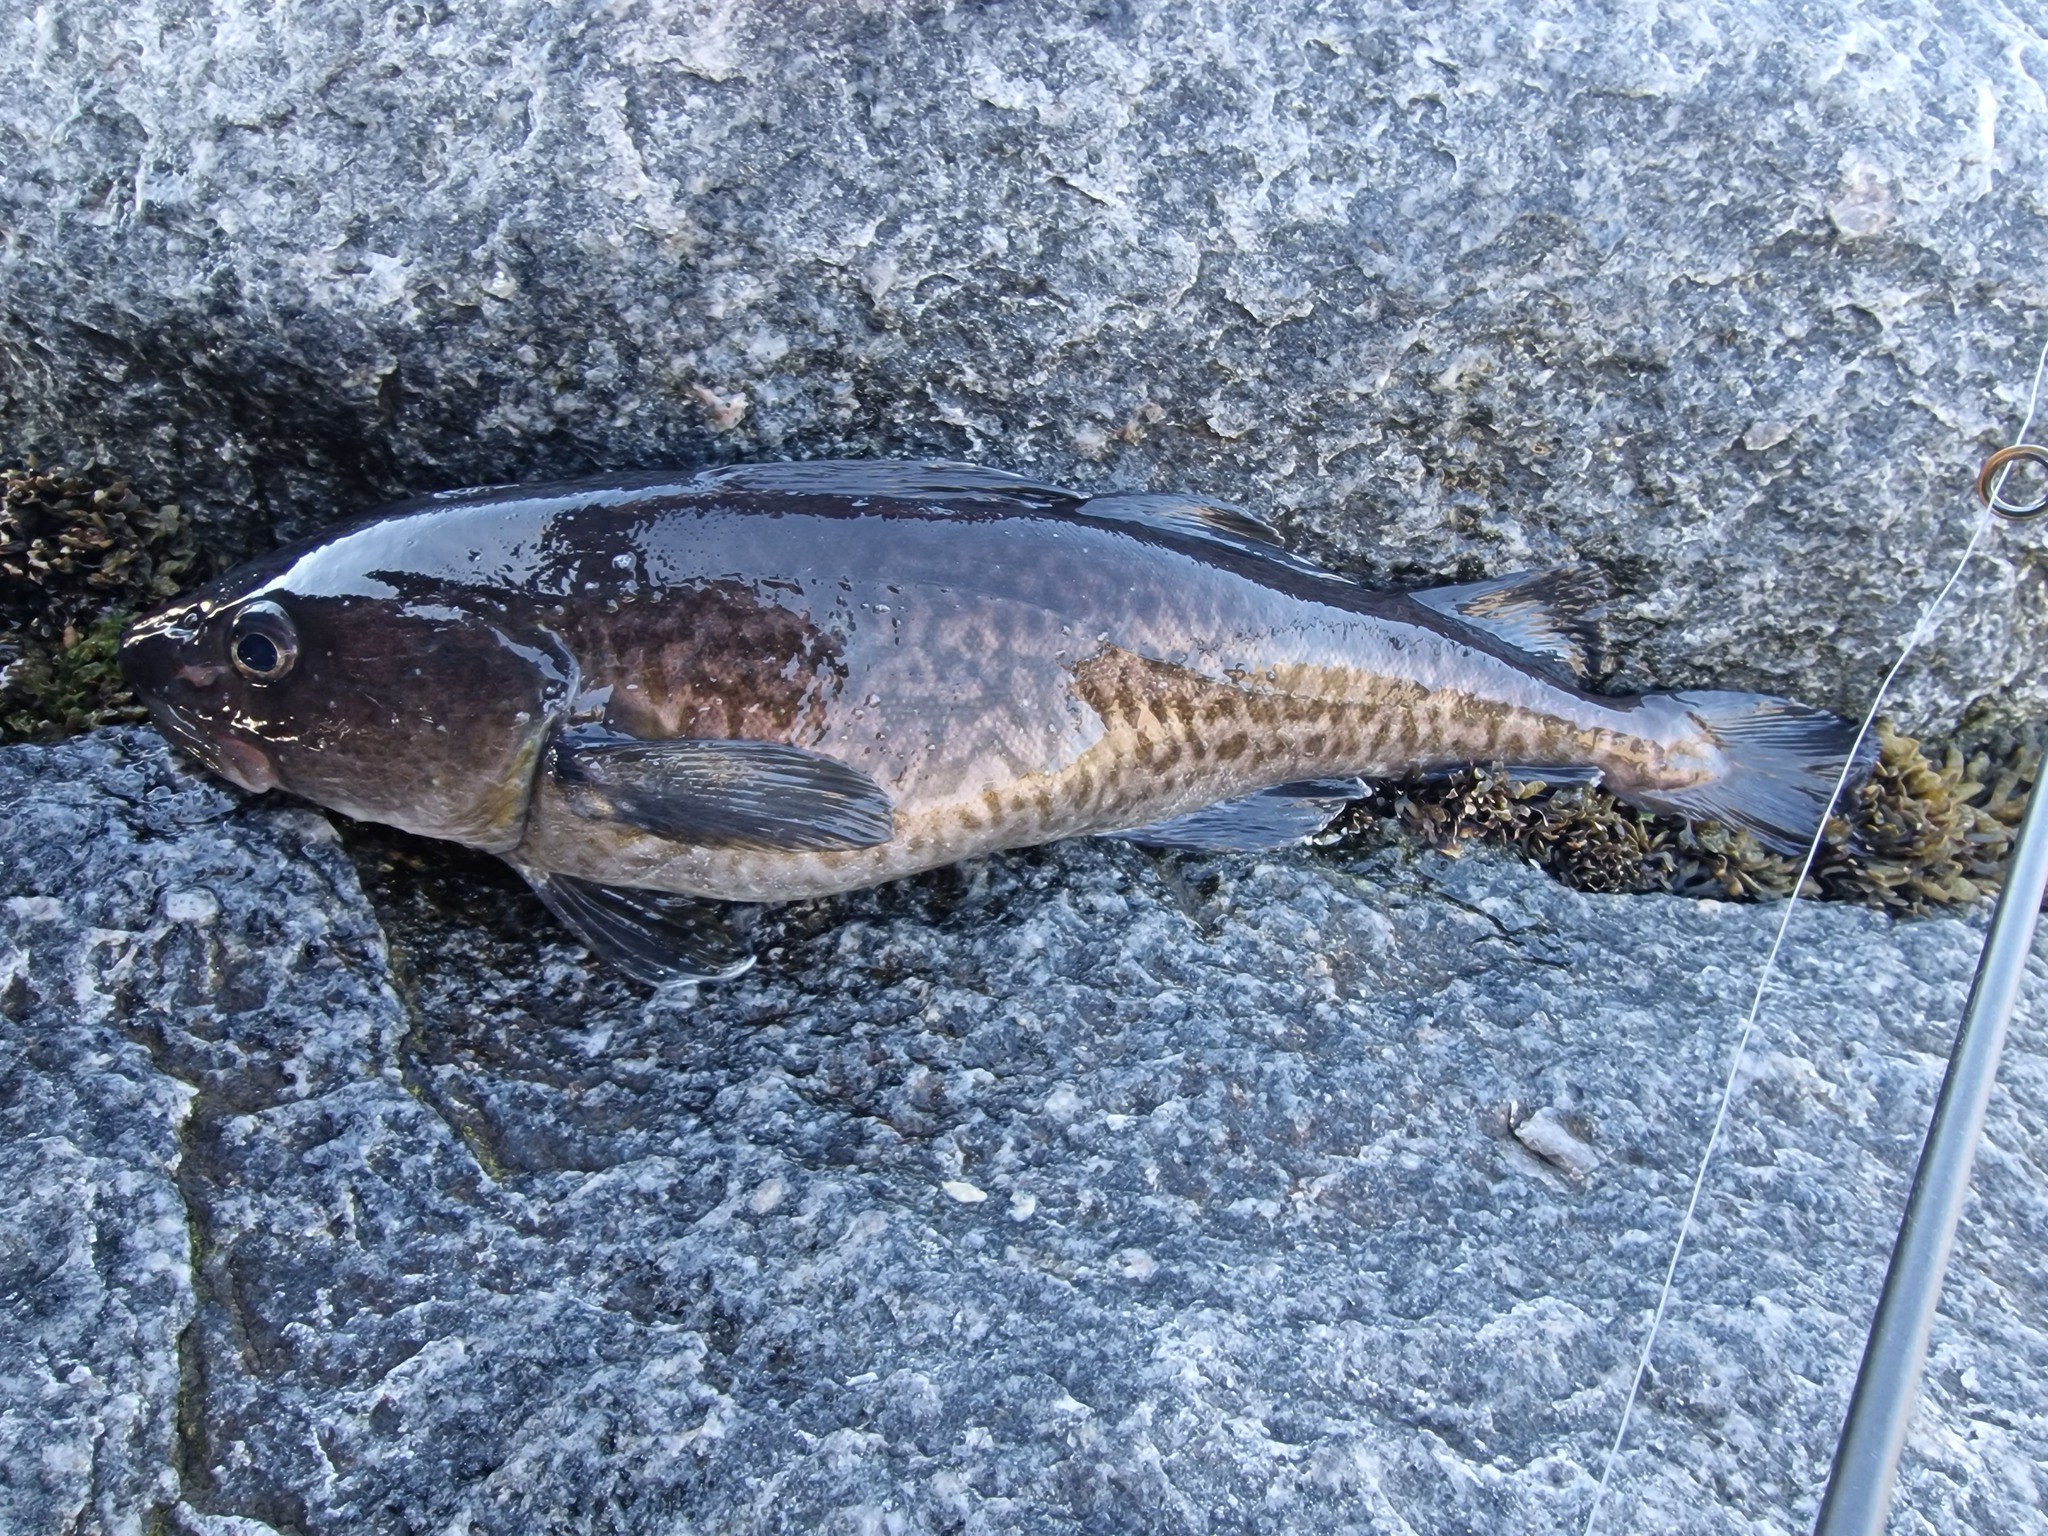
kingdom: Animalia
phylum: Chordata
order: Gadiformes
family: Gadidae
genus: Gadus
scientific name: Gadus macrocephalus
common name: Pacific cod
